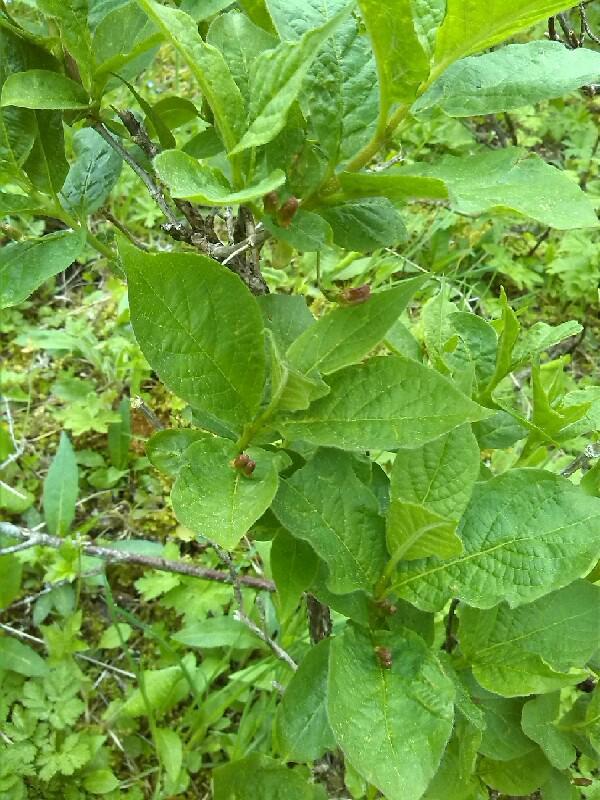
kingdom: Plantae
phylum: Tracheophyta
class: Magnoliopsida
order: Dipsacales
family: Caprifoliaceae
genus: Lonicera
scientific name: Lonicera alpigena
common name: Alpine honeysuckle
